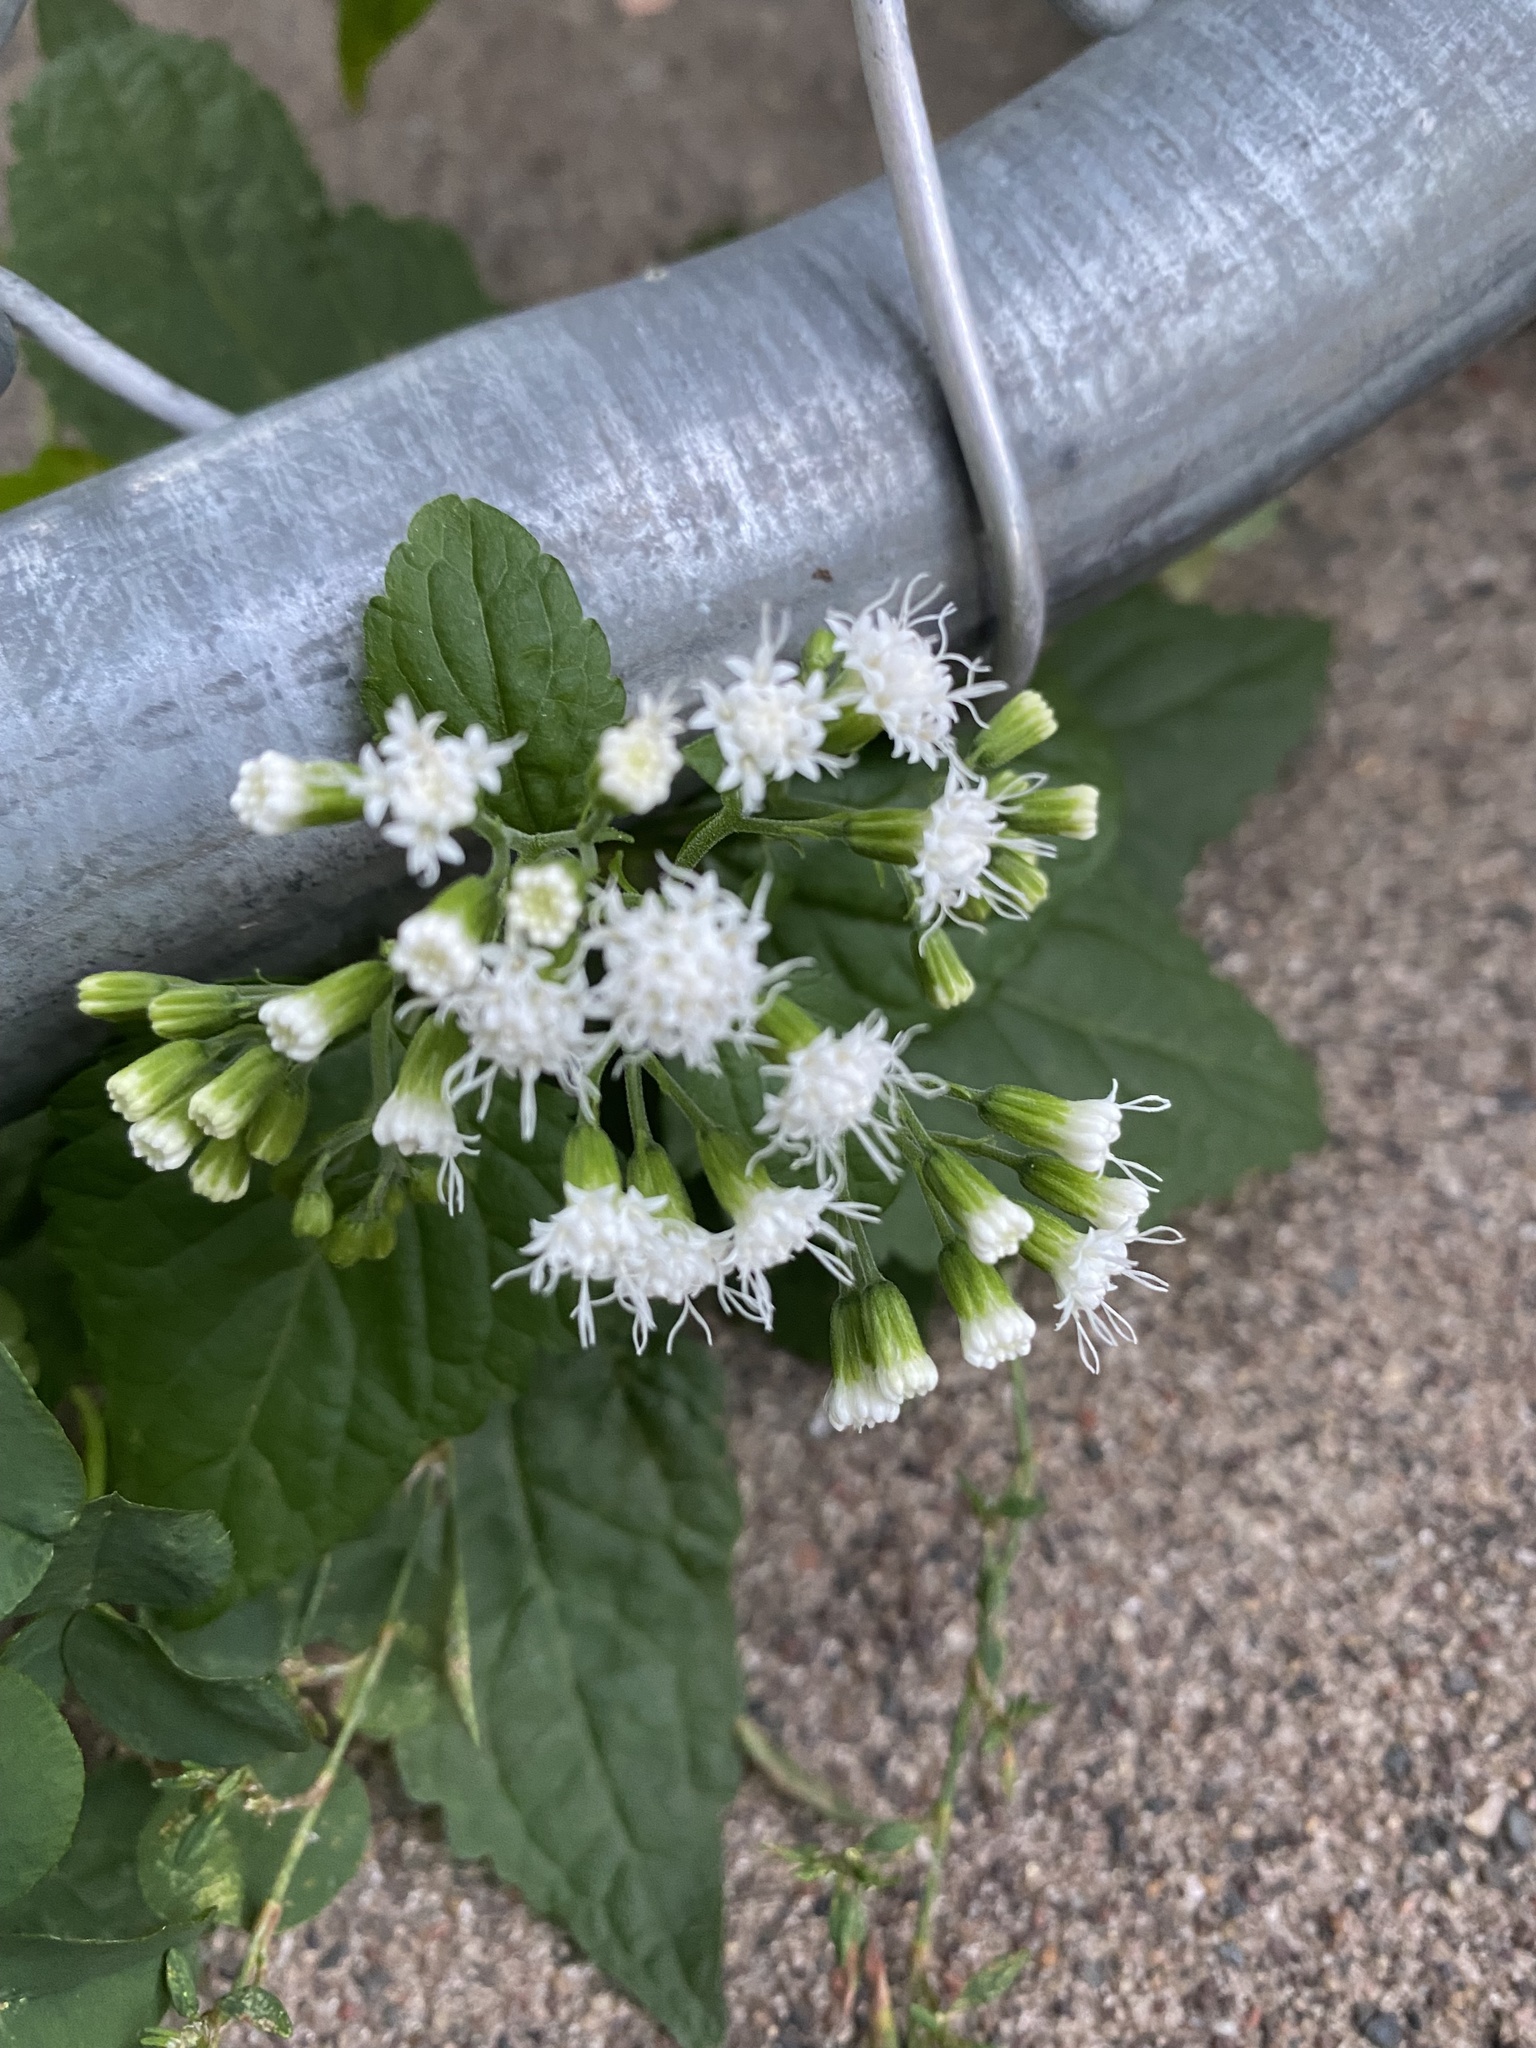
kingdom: Plantae
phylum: Tracheophyta
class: Magnoliopsida
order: Asterales
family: Asteraceae
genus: Ageratina
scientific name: Ageratina altissima
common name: White snakeroot
